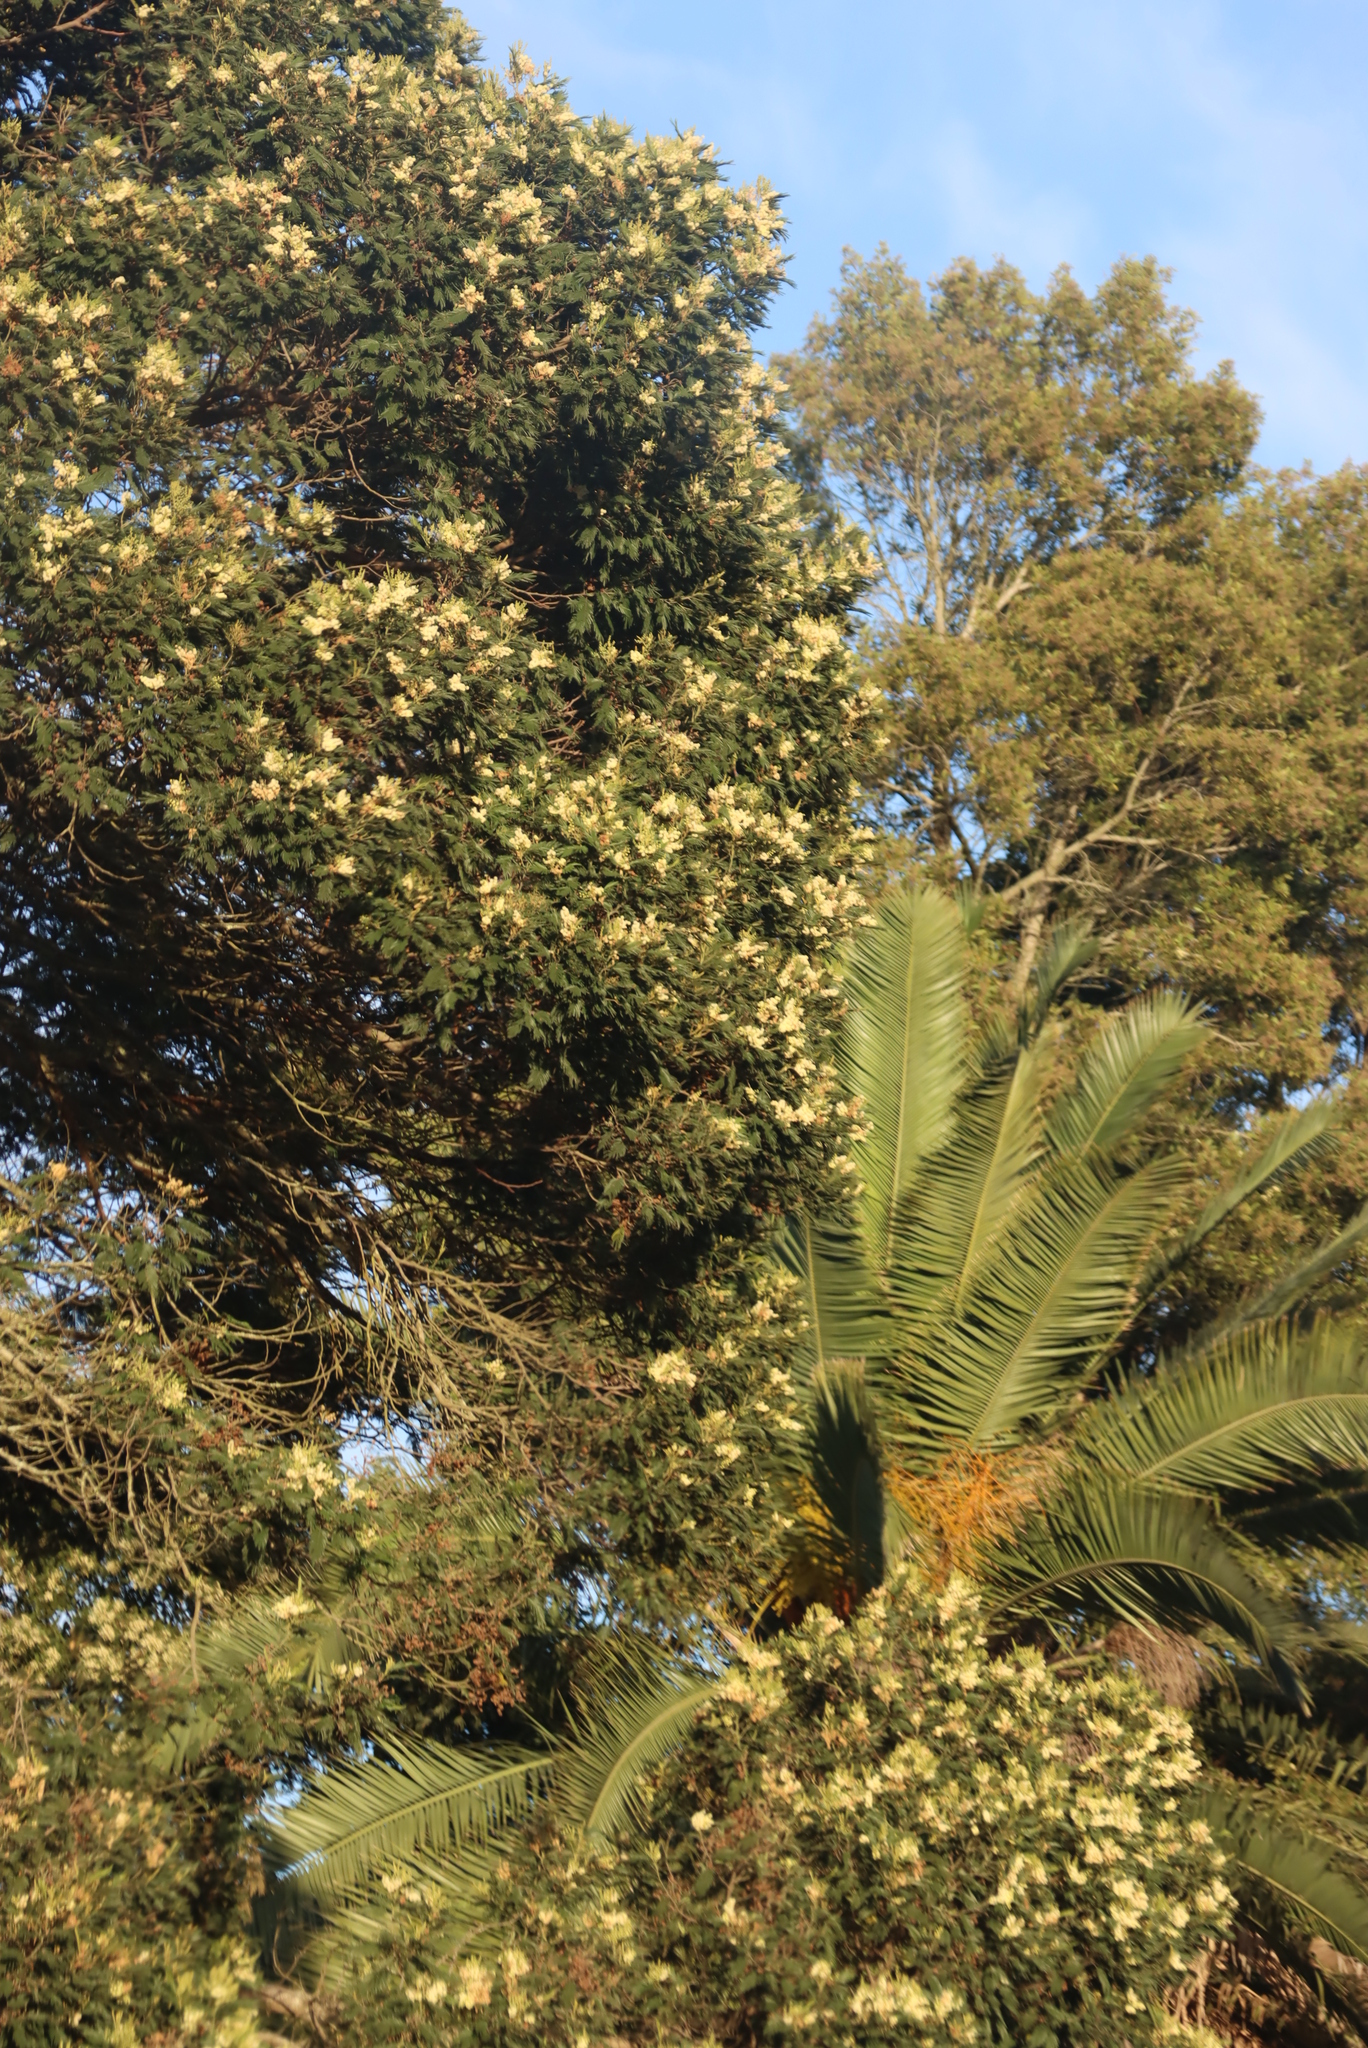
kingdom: Plantae
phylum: Tracheophyta
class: Magnoliopsida
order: Fabales
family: Fabaceae
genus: Acacia
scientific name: Acacia mearnsii
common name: Black wattle
